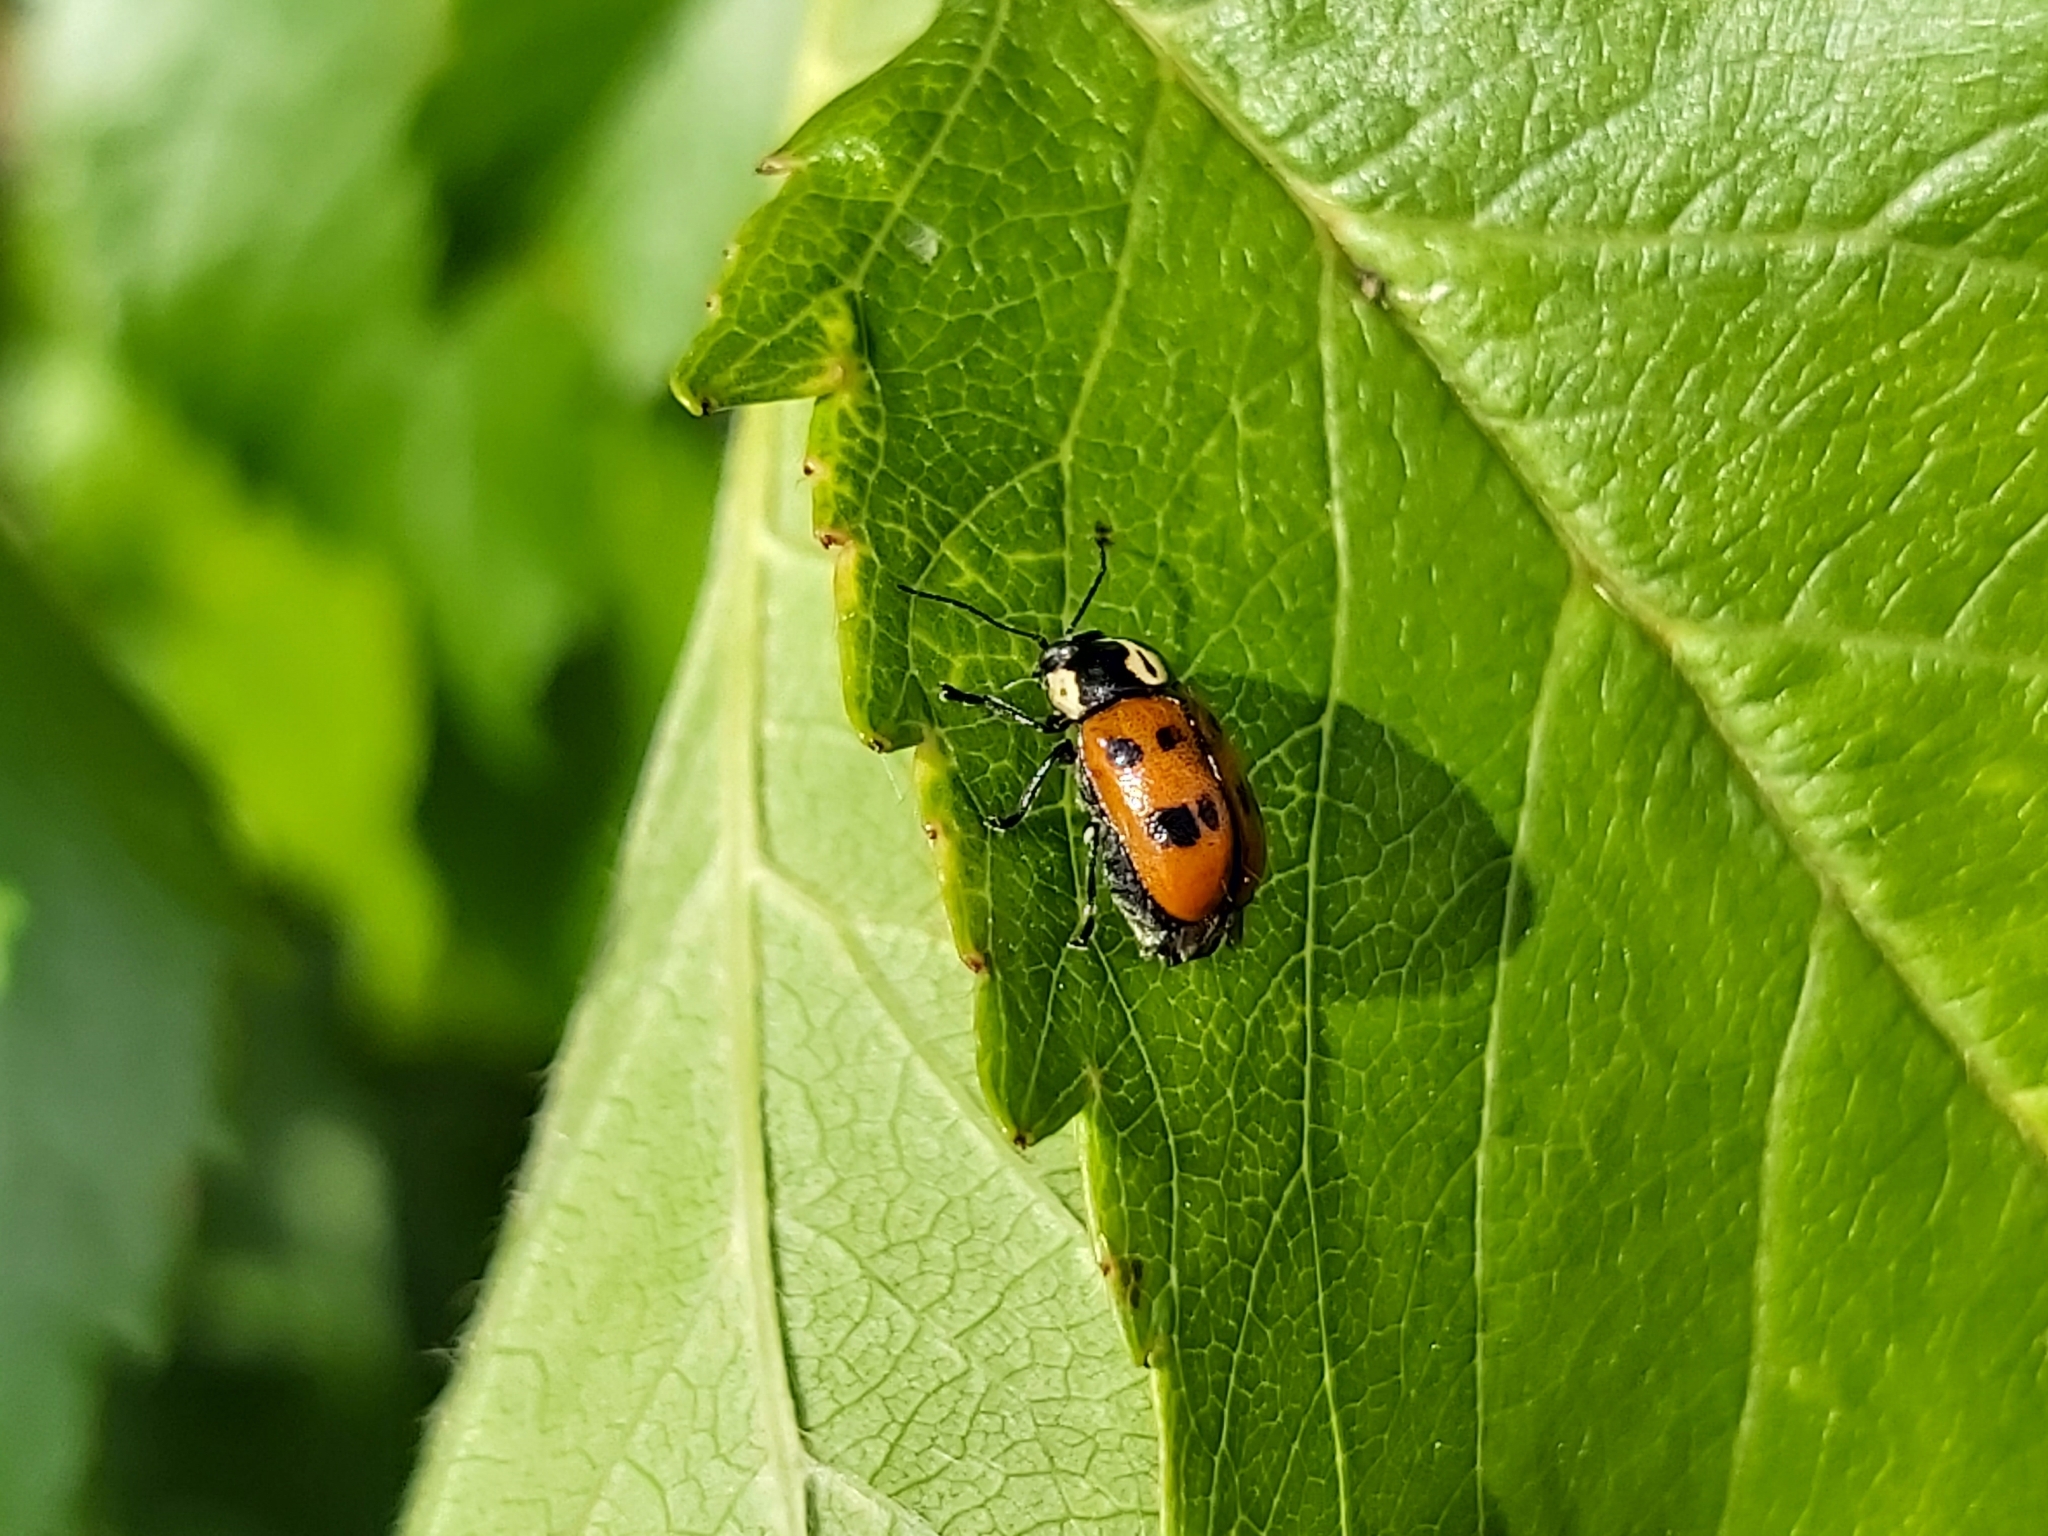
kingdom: Animalia
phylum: Arthropoda
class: Insecta
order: Coleoptera
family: Chrysomelidae
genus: Cryptocephalus
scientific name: Cryptocephalus octopunctatus
